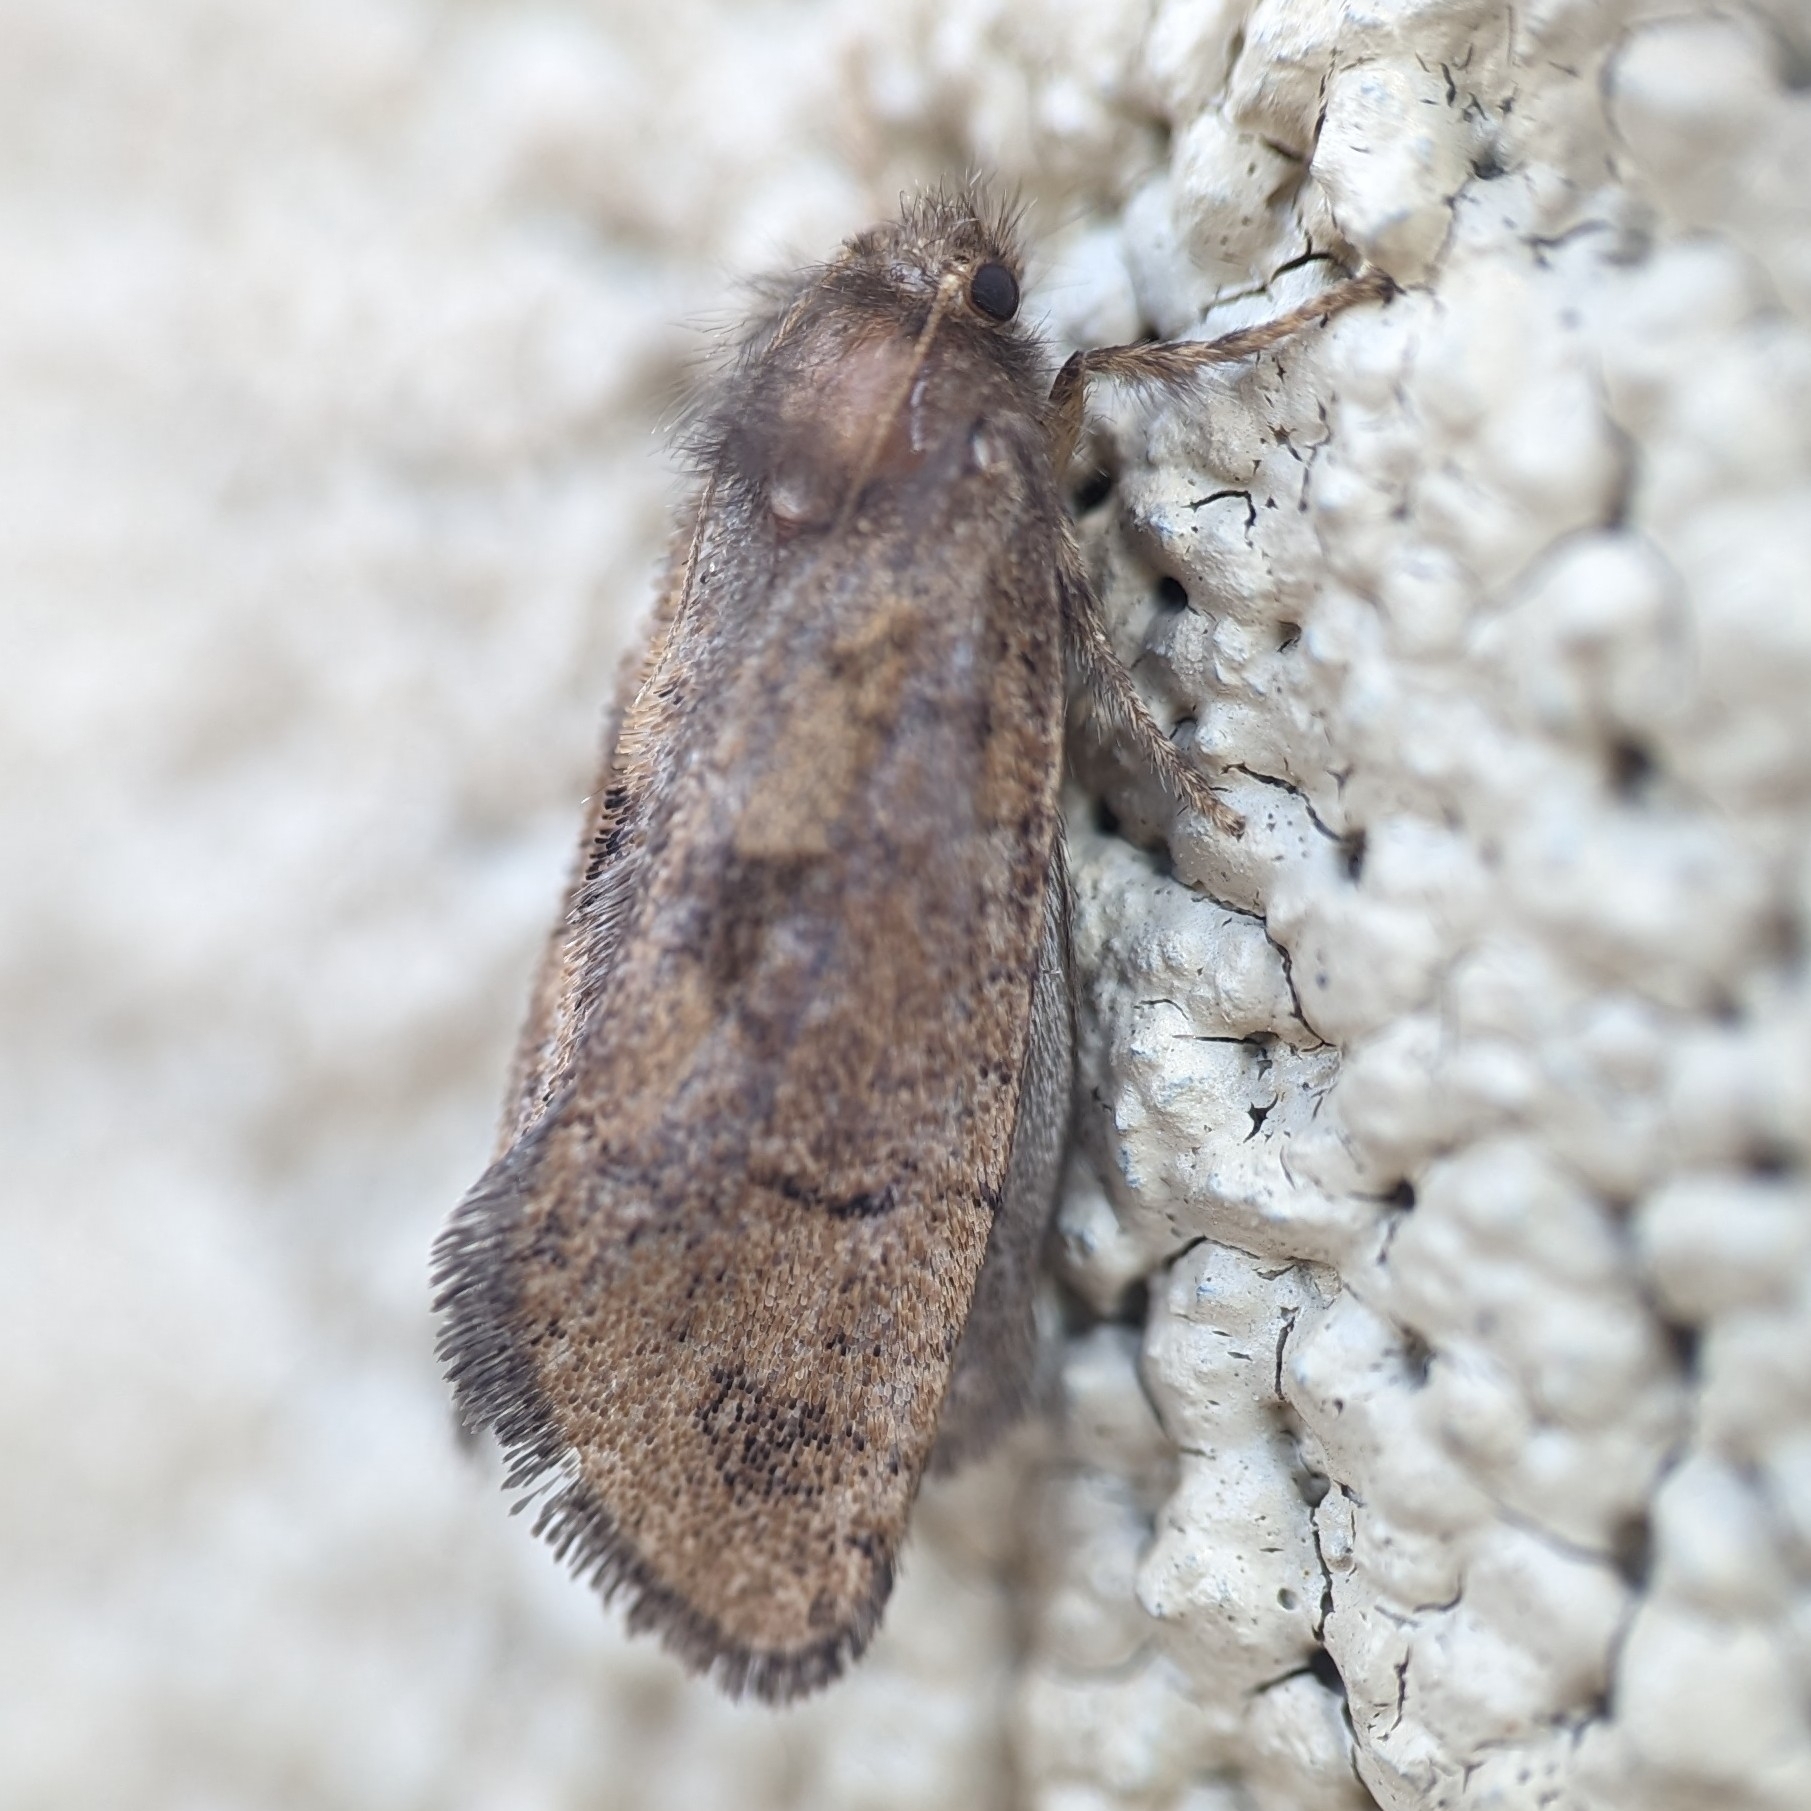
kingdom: Animalia
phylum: Arthropoda
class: Insecta
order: Lepidoptera
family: Tineidae
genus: Acrolophus
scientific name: Acrolophus mora
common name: Dark acrolophus
